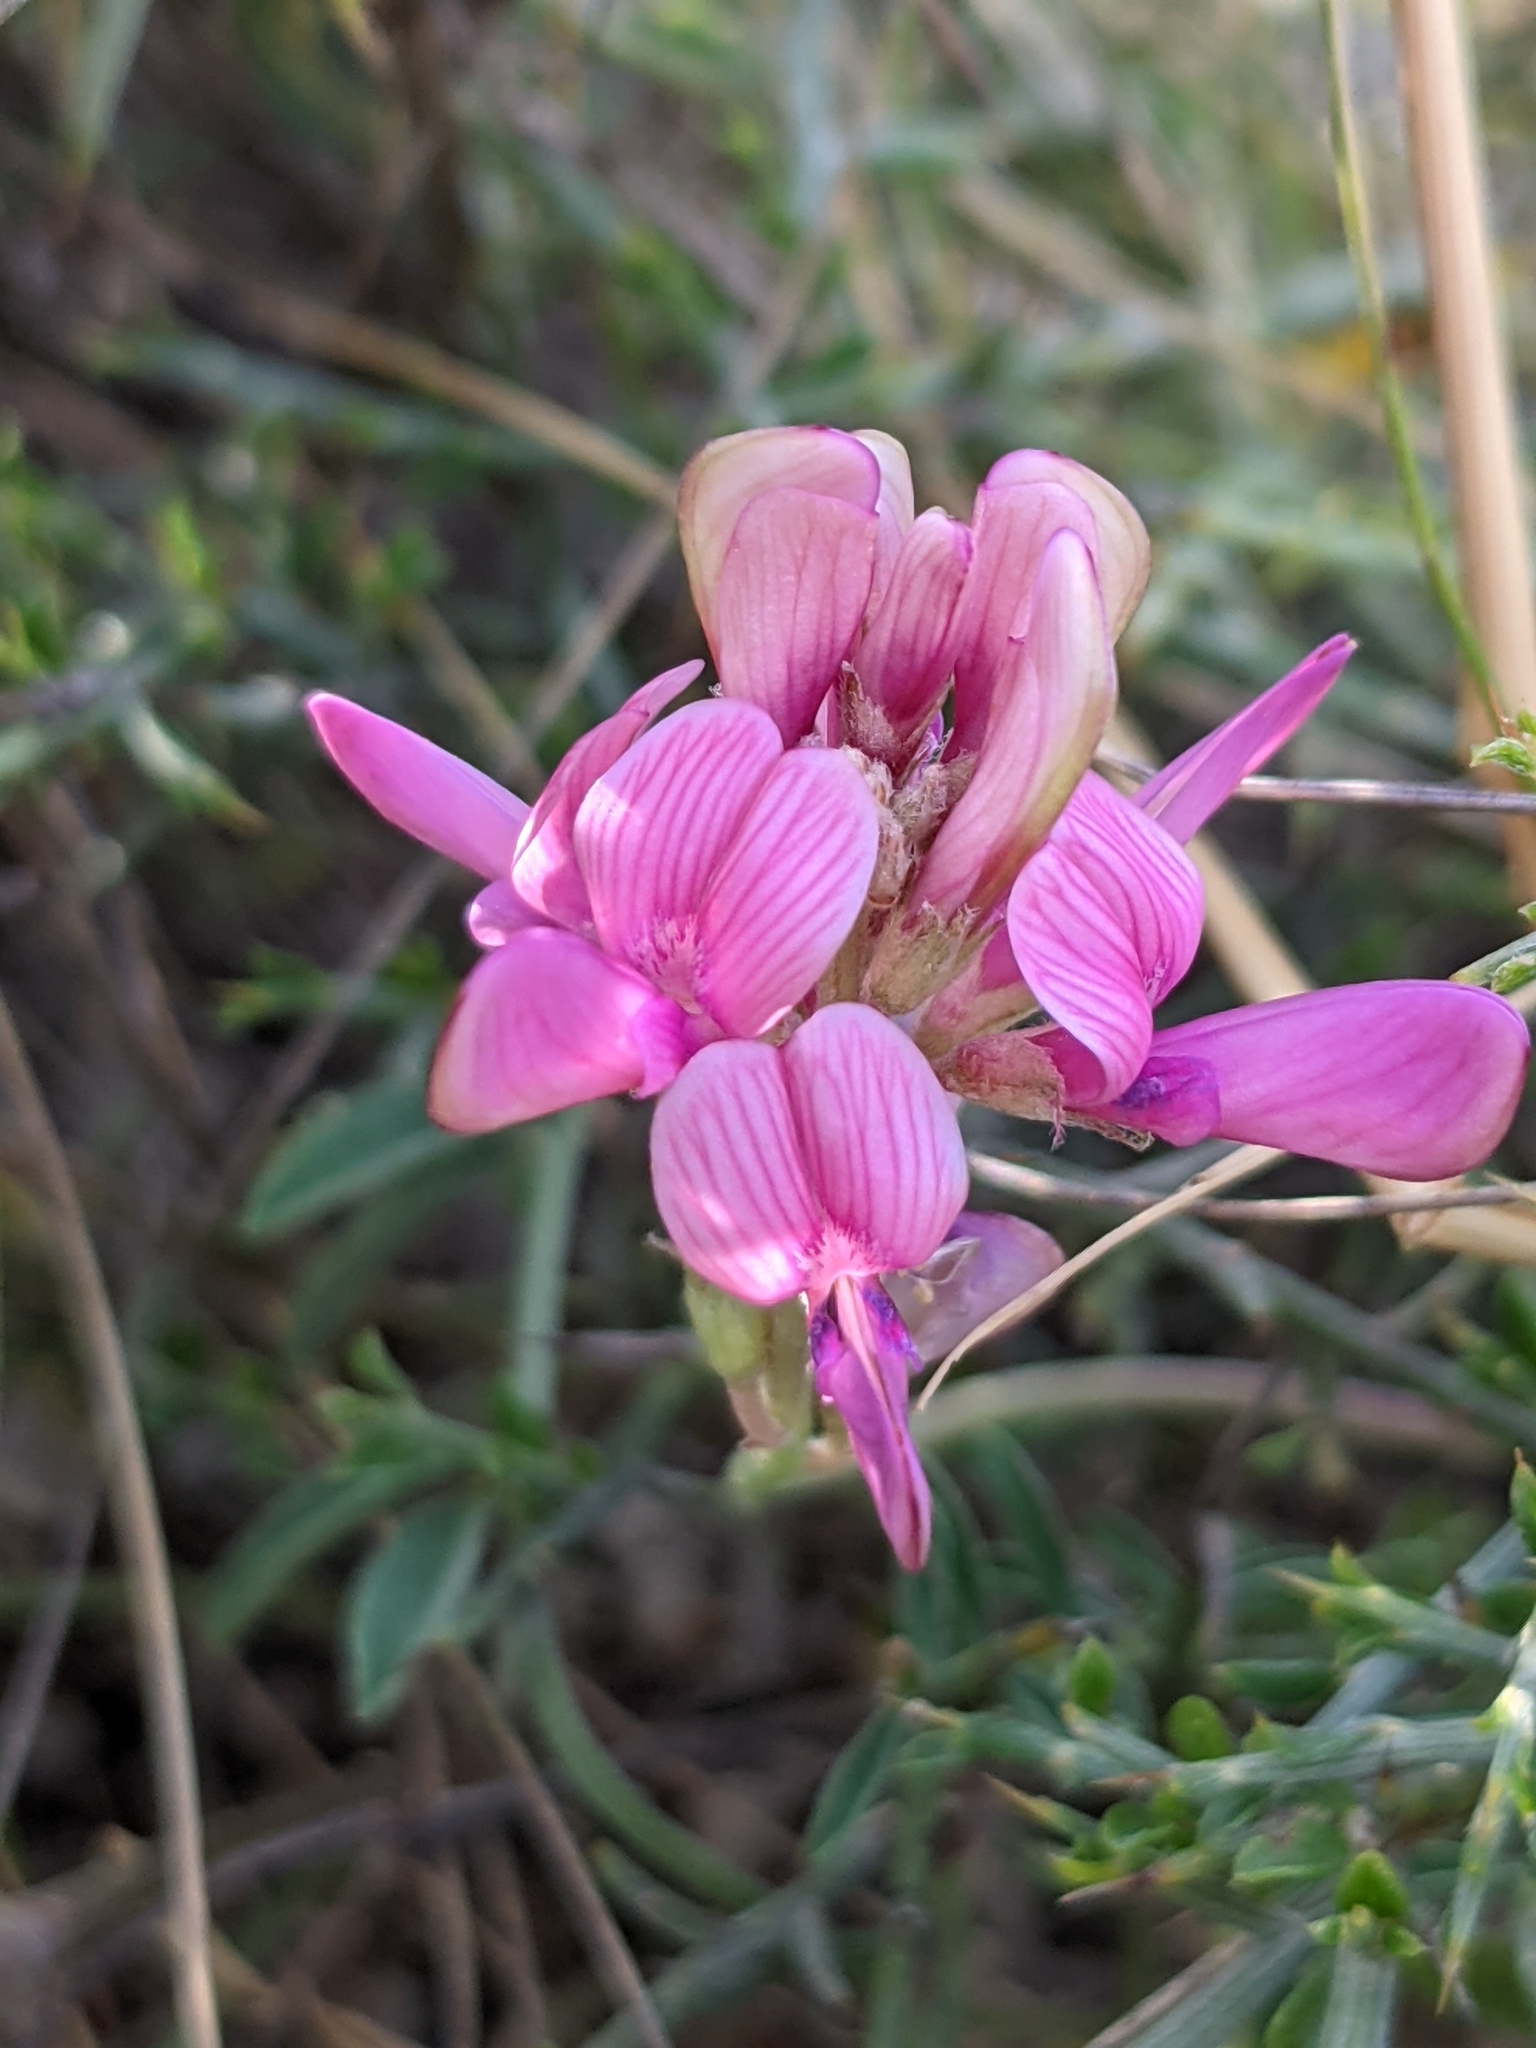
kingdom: Plantae
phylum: Tracheophyta
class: Magnoliopsida
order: Fabales
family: Fabaceae
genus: Hedysarum
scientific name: Hedysarum boveanum
